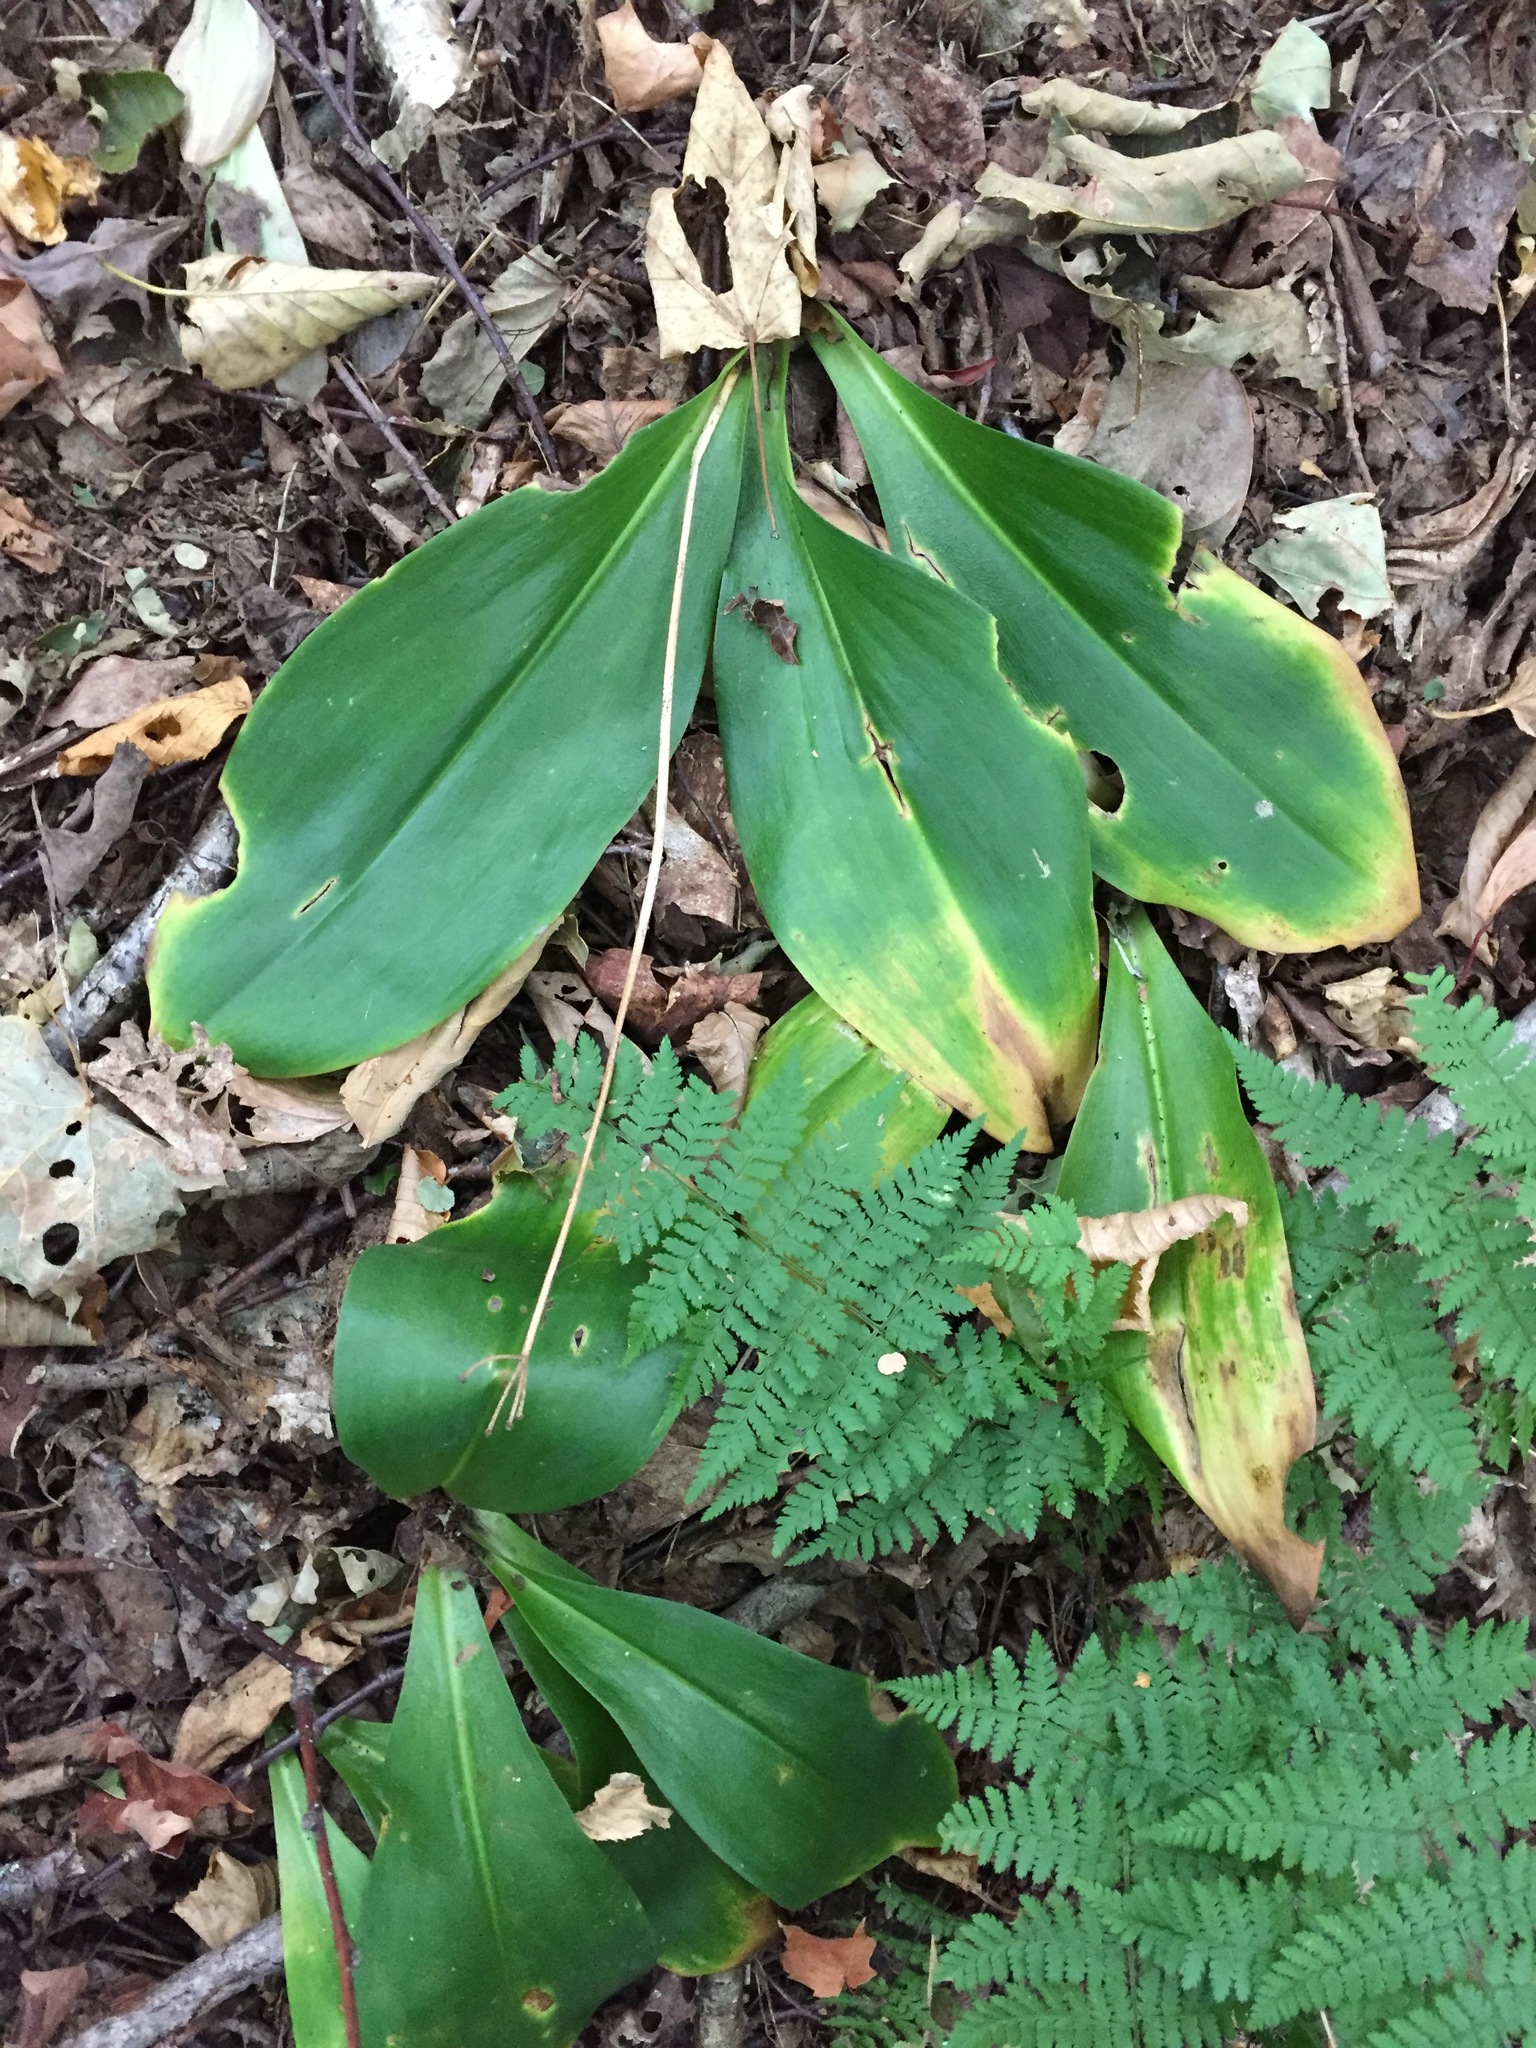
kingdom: Plantae
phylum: Tracheophyta
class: Liliopsida
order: Liliales
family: Liliaceae
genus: Clintonia
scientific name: Clintonia borealis
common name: Yellow clintonia
